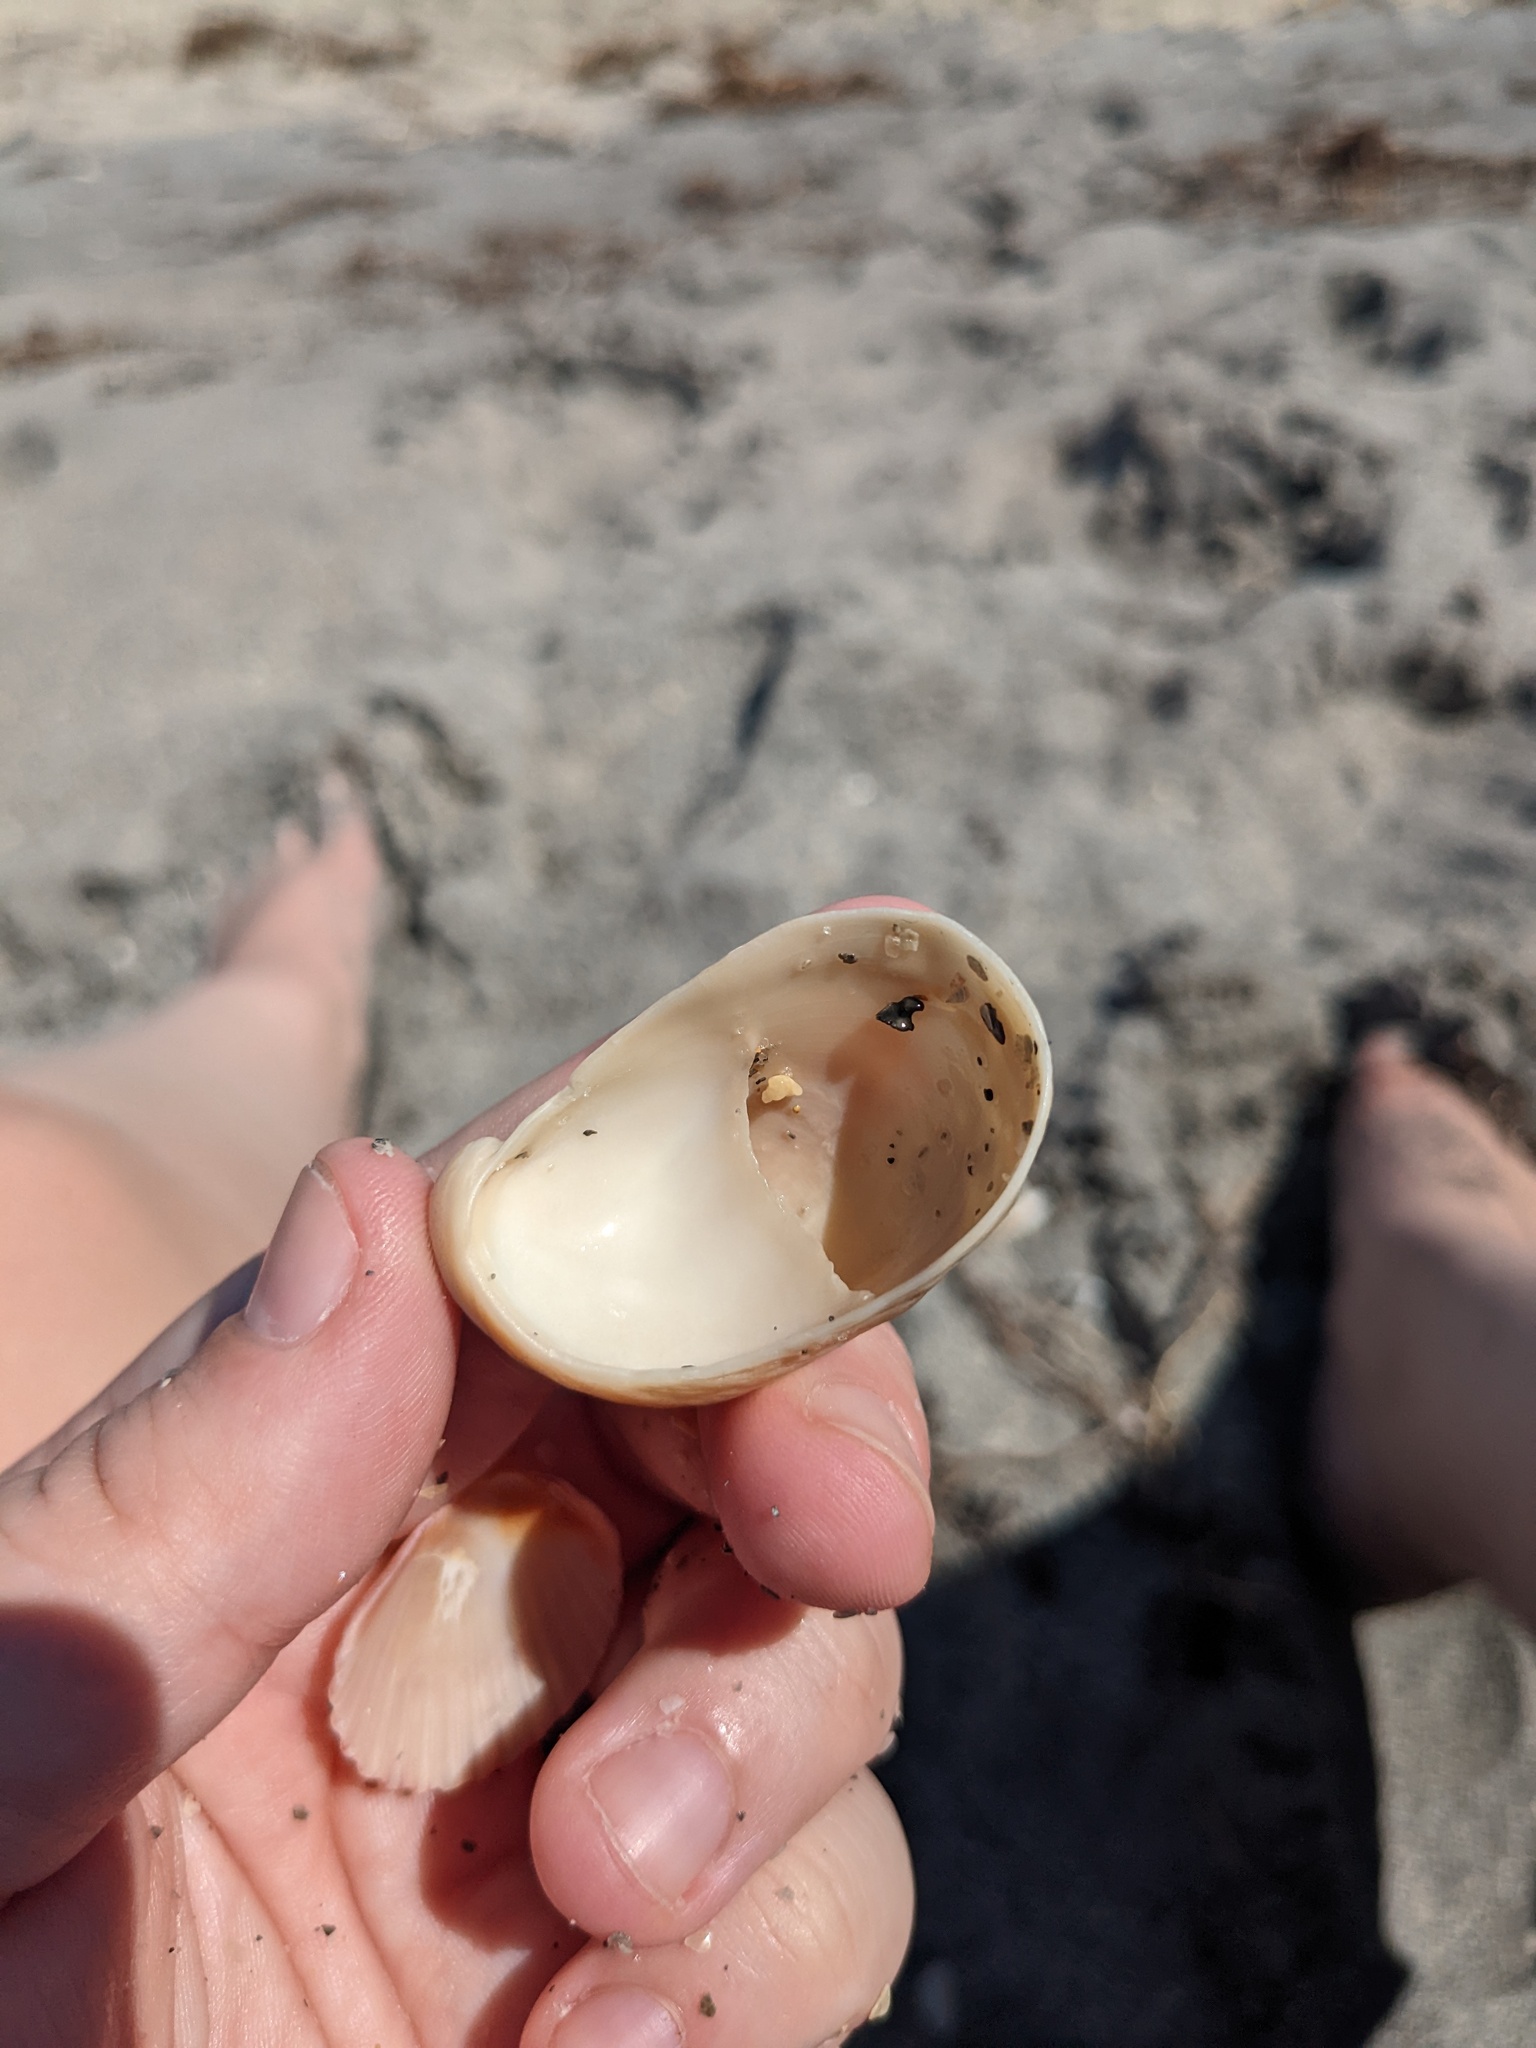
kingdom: Animalia
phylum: Mollusca
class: Gastropoda
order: Littorinimorpha
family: Calyptraeidae
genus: Crepidula
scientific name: Crepidula fornicata
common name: Slipper limpet
